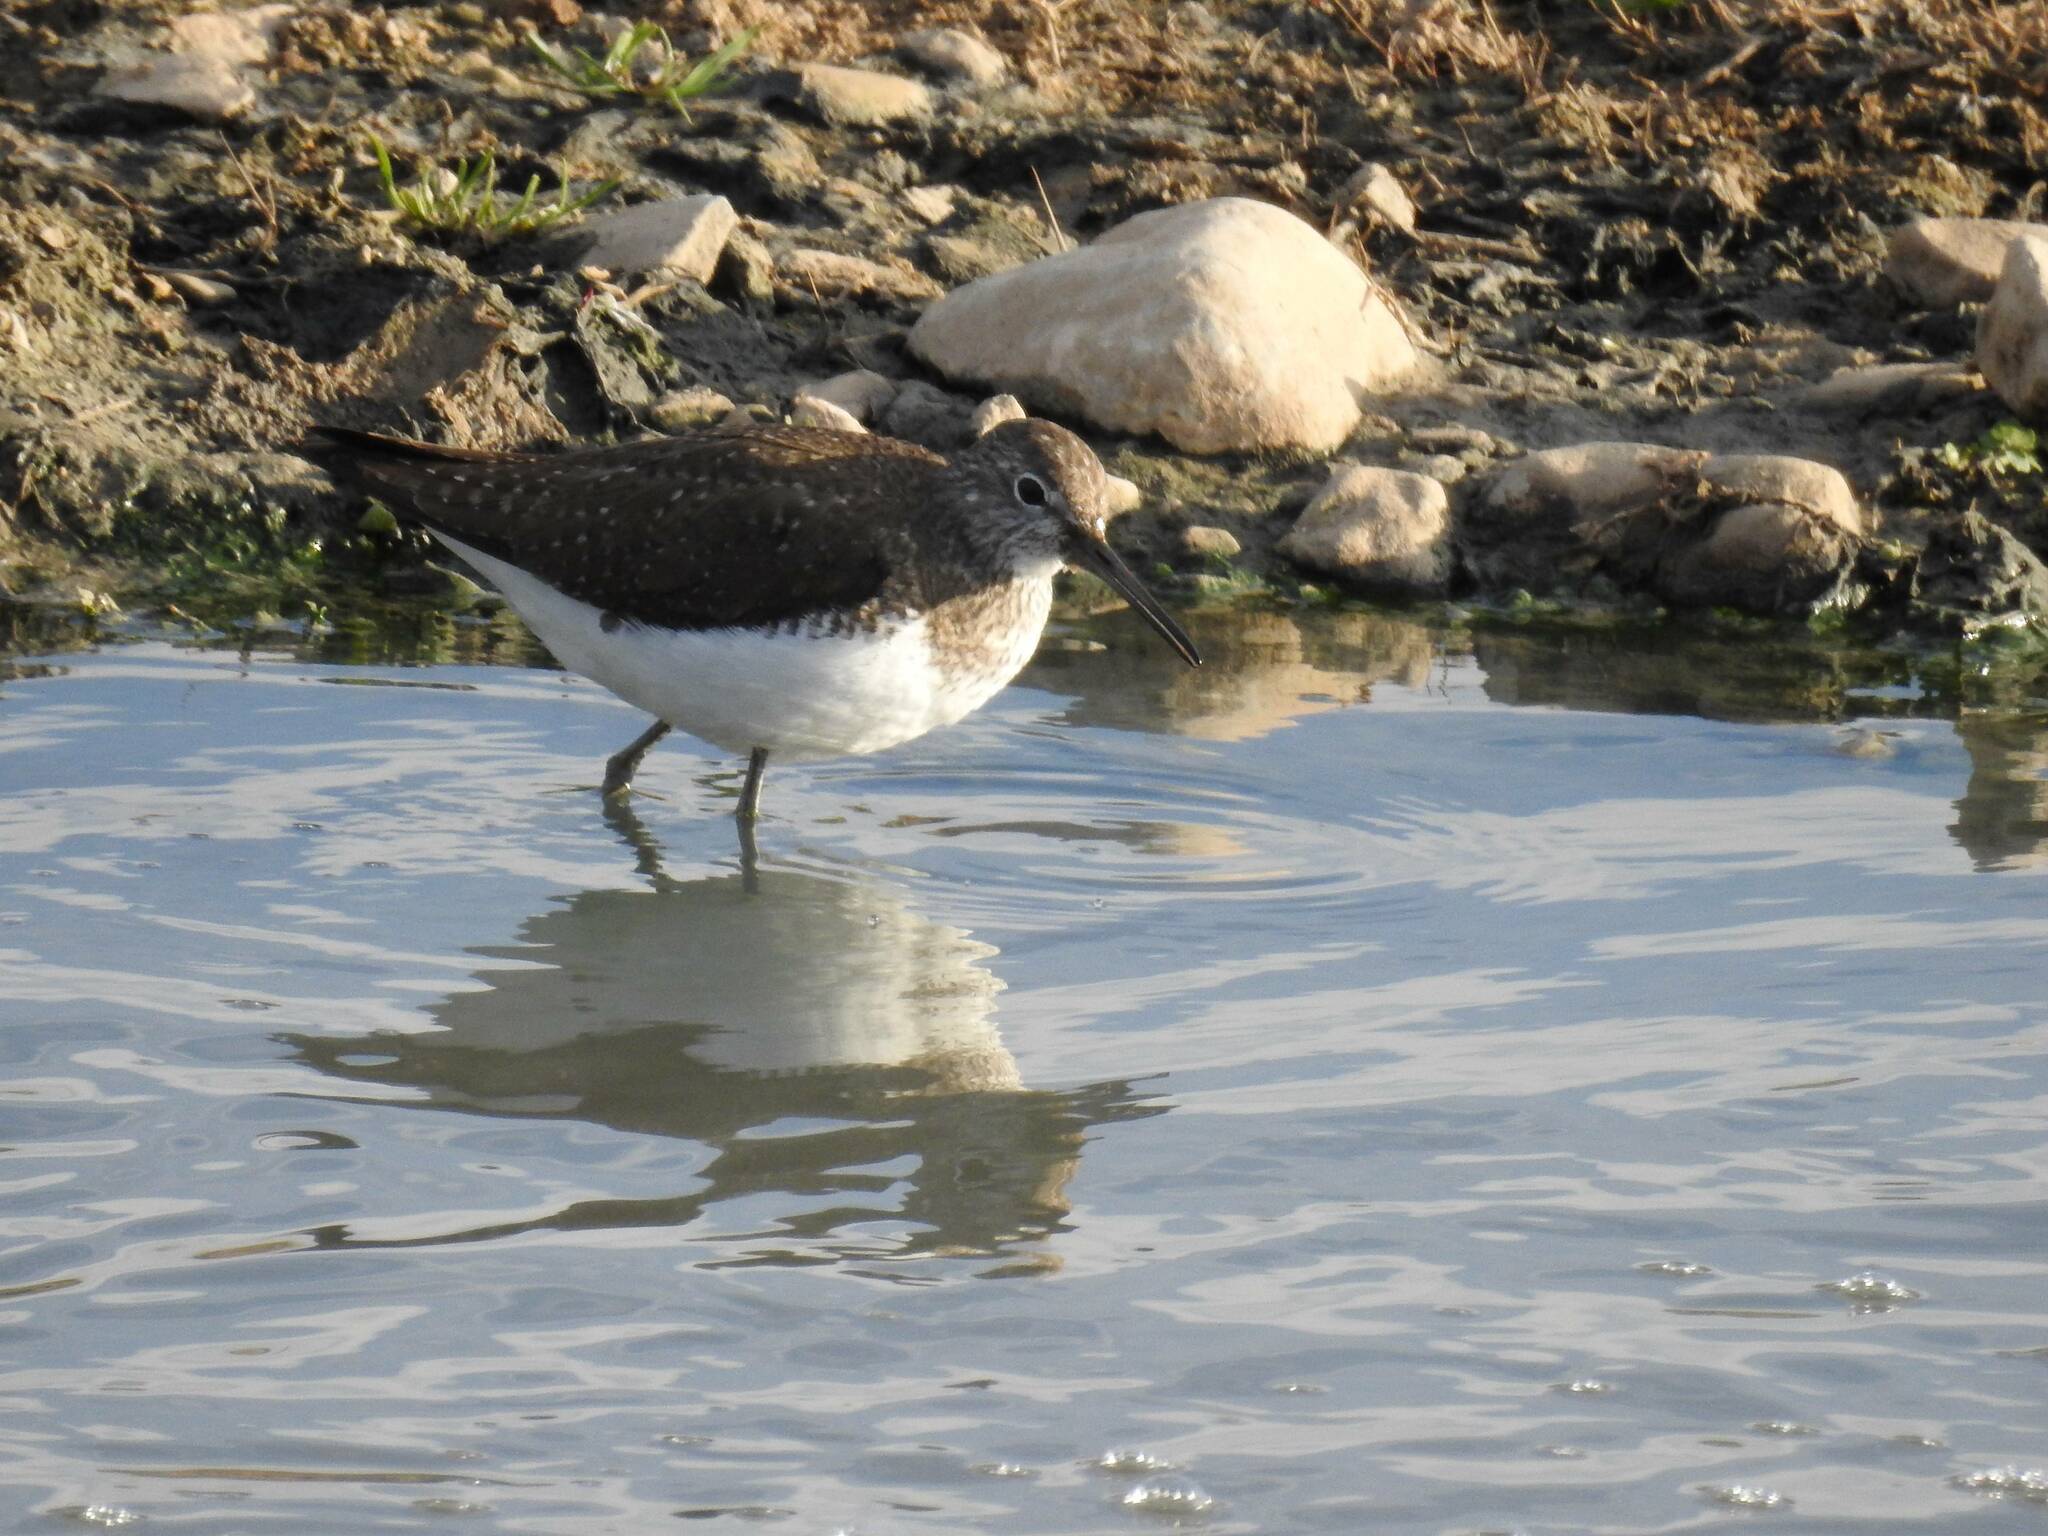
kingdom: Animalia
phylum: Chordata
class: Aves
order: Charadriiformes
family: Scolopacidae
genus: Tringa
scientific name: Tringa ochropus
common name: Green sandpiper
